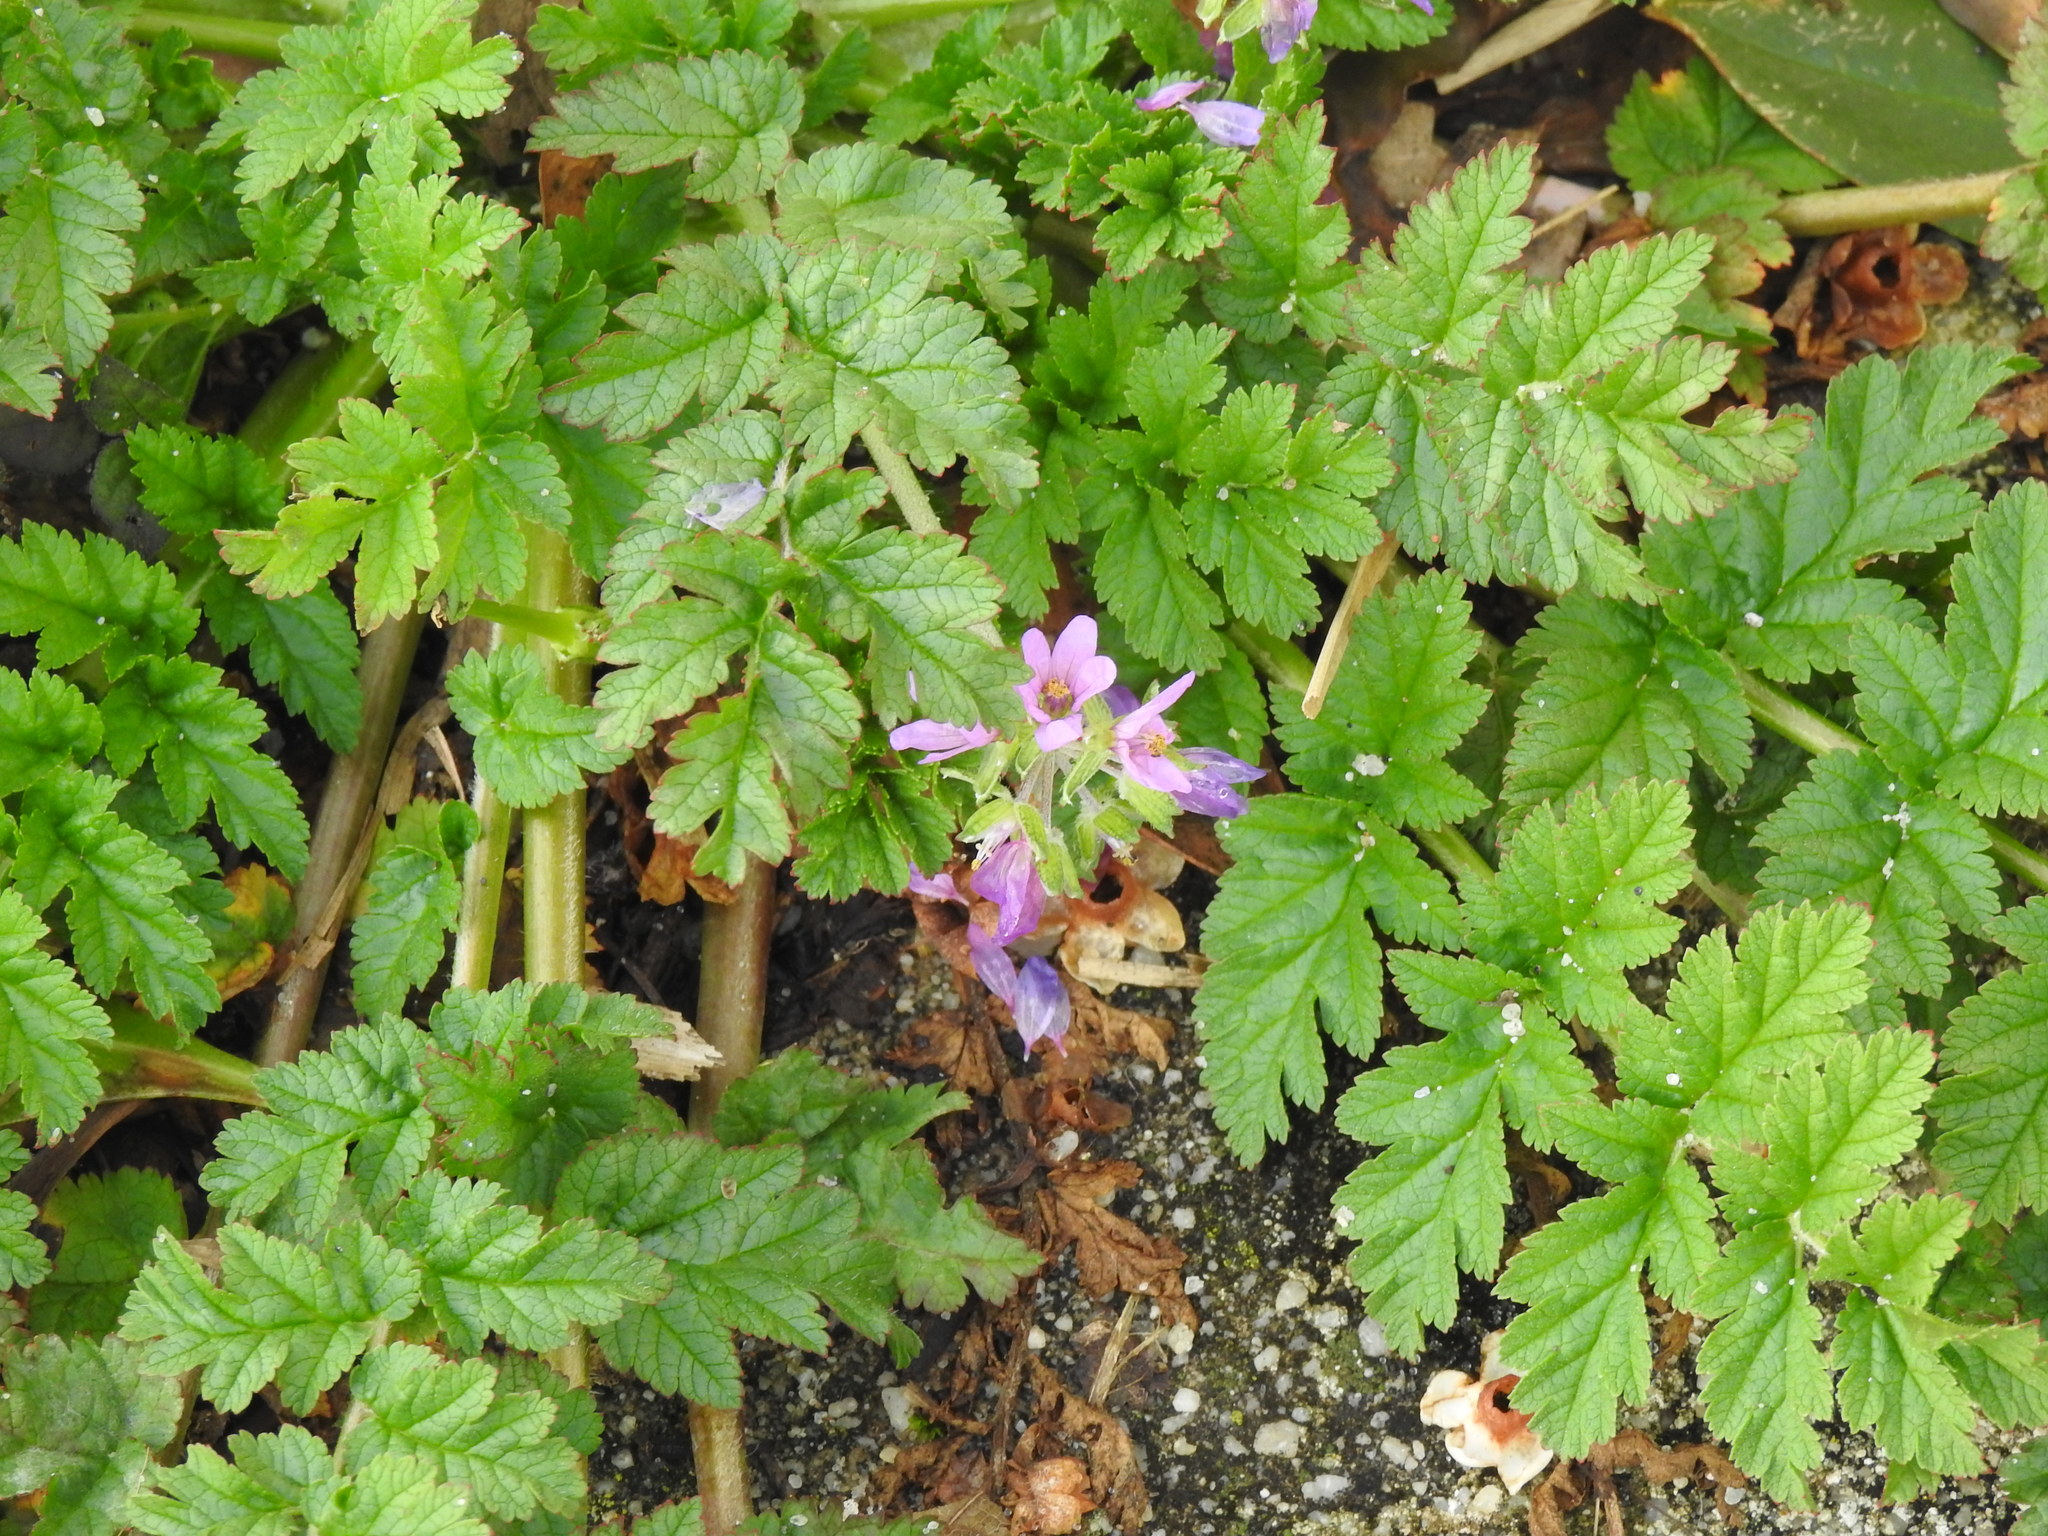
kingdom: Plantae
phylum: Tracheophyta
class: Magnoliopsida
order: Geraniales
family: Geraniaceae
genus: Erodium
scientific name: Erodium moschatum
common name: Musk stork's-bill
